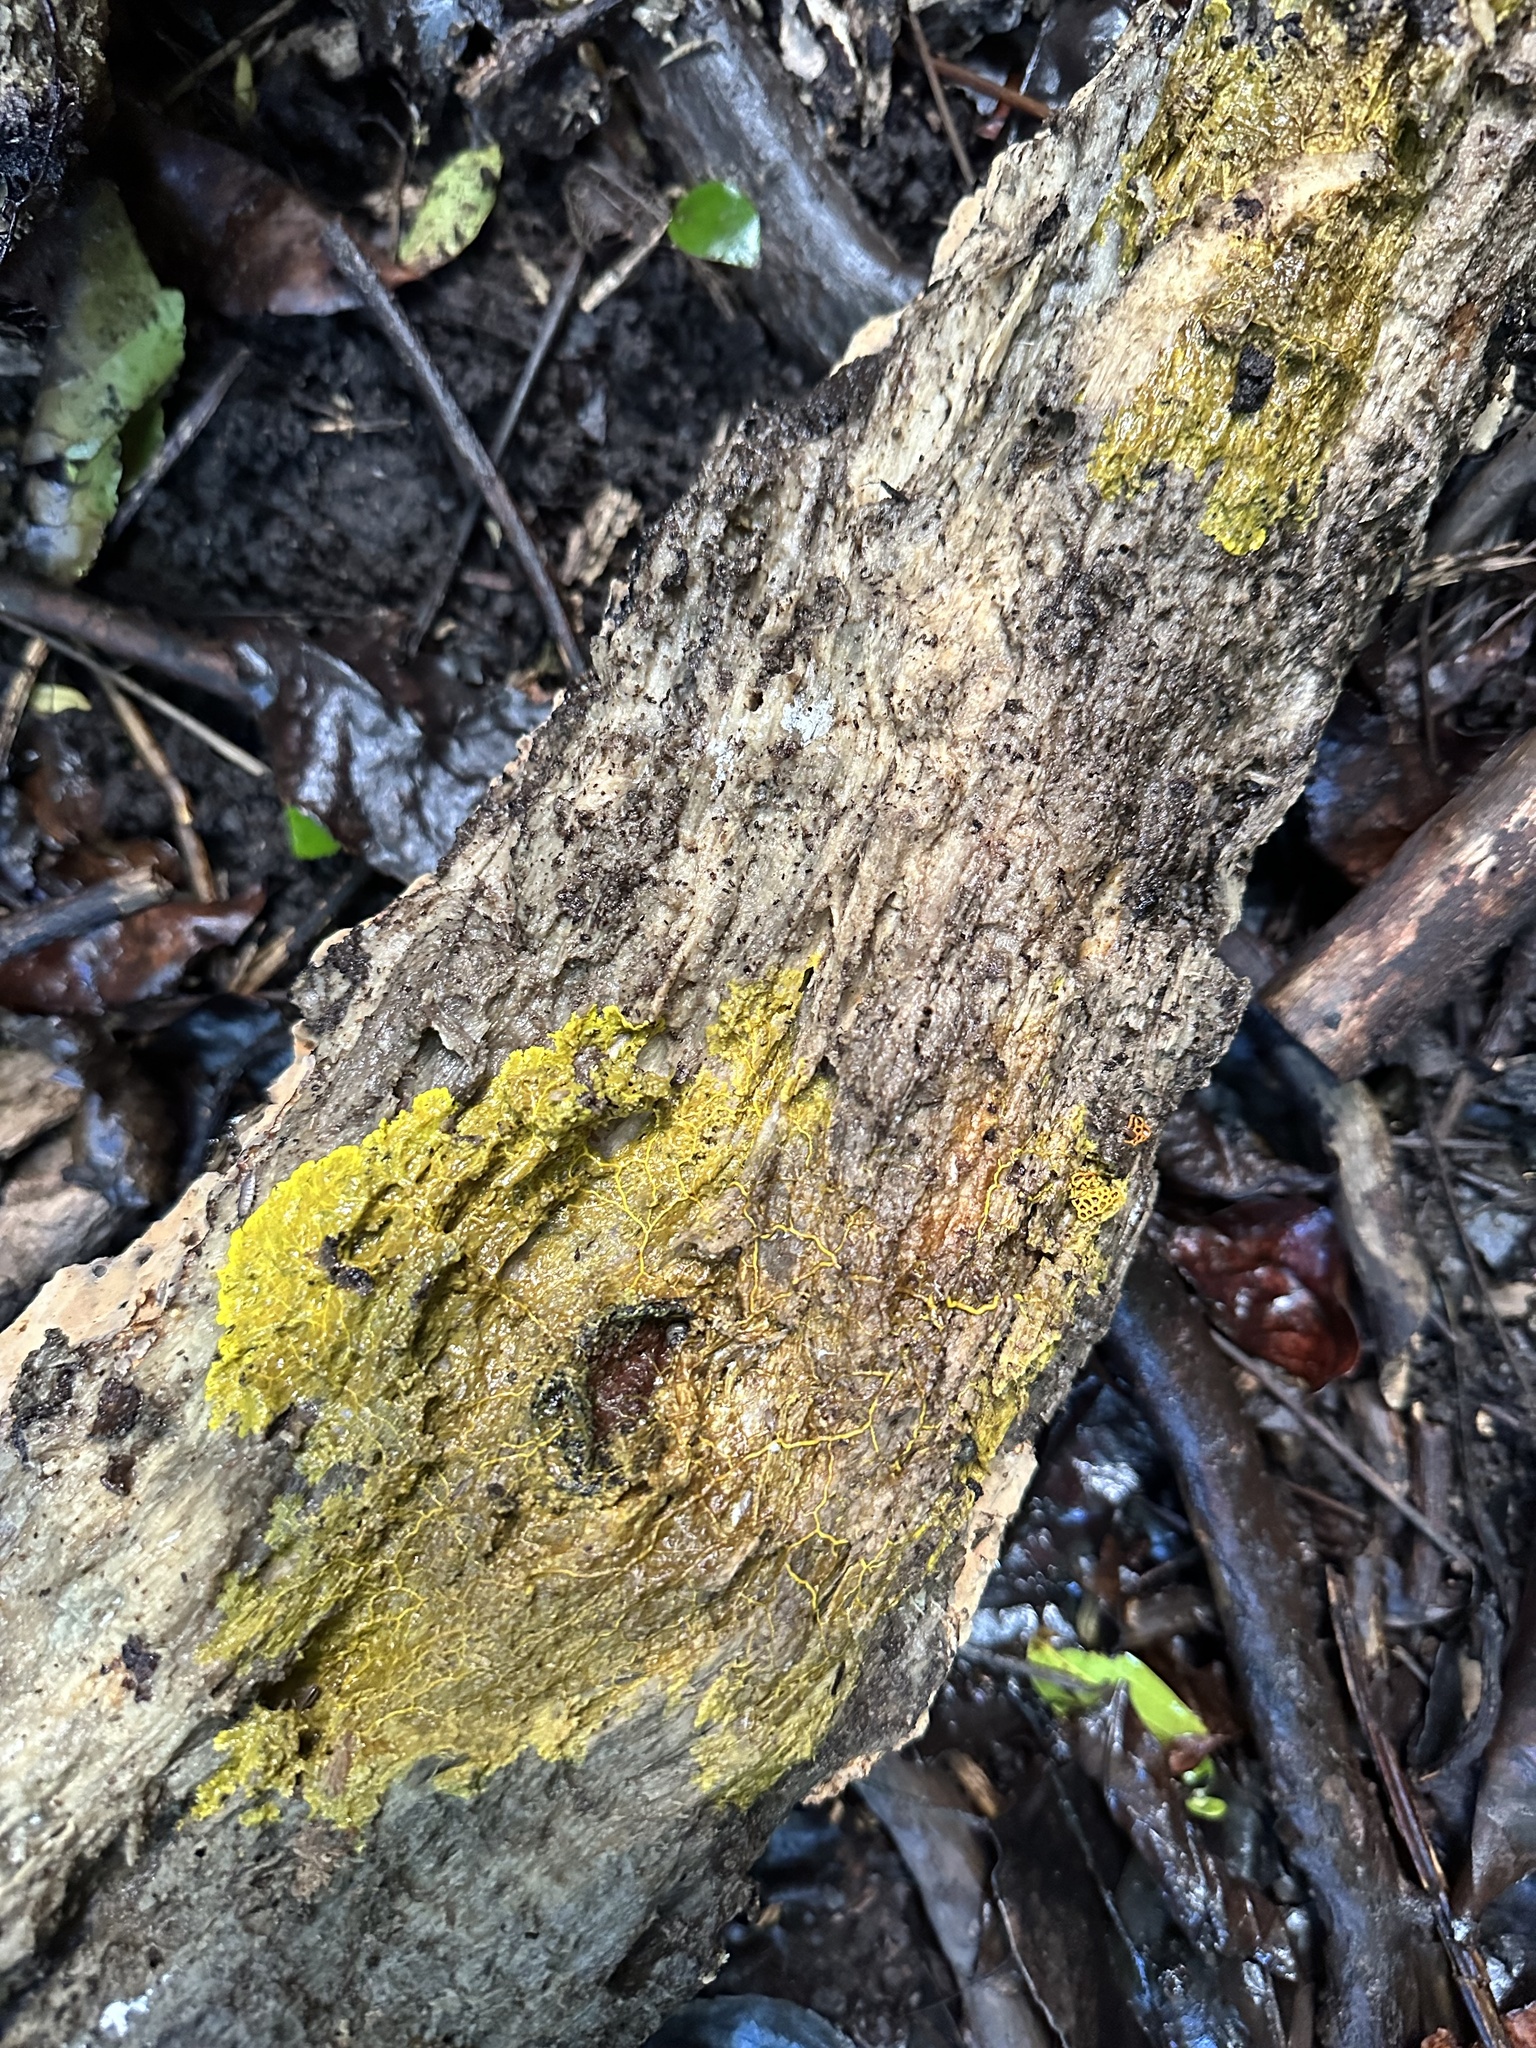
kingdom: Protozoa
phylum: Mycetozoa
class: Myxomycetes
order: Trichiales
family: Arcyriaceae
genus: Hemitrichia
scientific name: Hemitrichia serpula
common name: Pretzel slime mold
